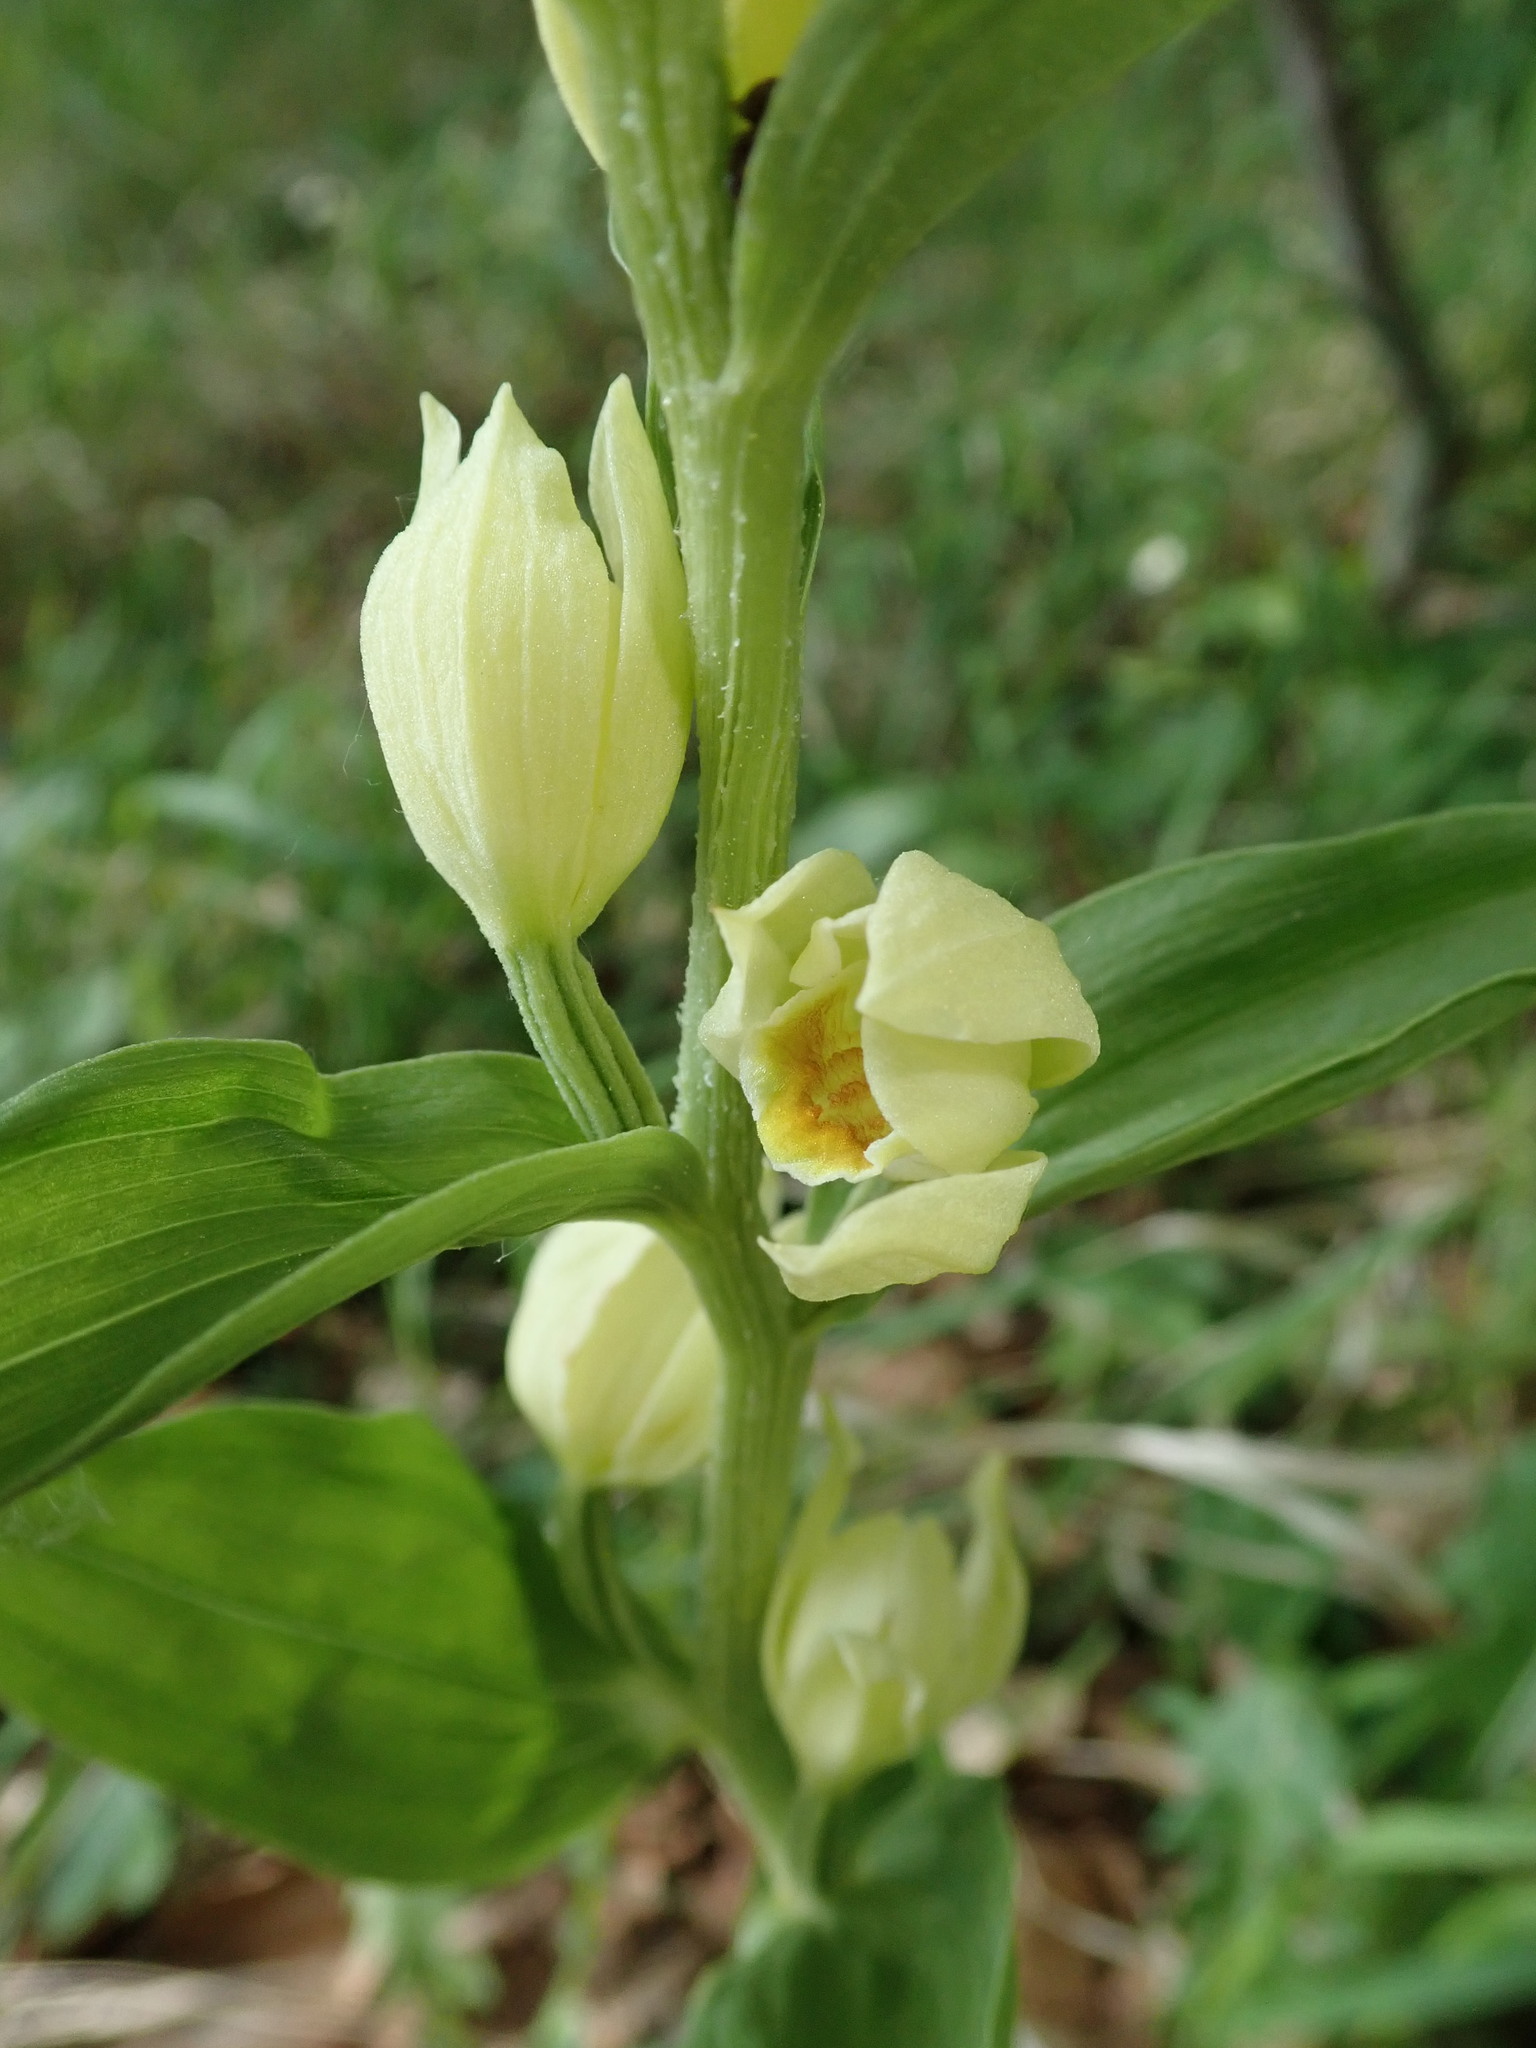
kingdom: Plantae
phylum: Tracheophyta
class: Liliopsida
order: Asparagales
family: Orchidaceae
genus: Cephalanthera
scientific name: Cephalanthera damasonium
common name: White helleborine
